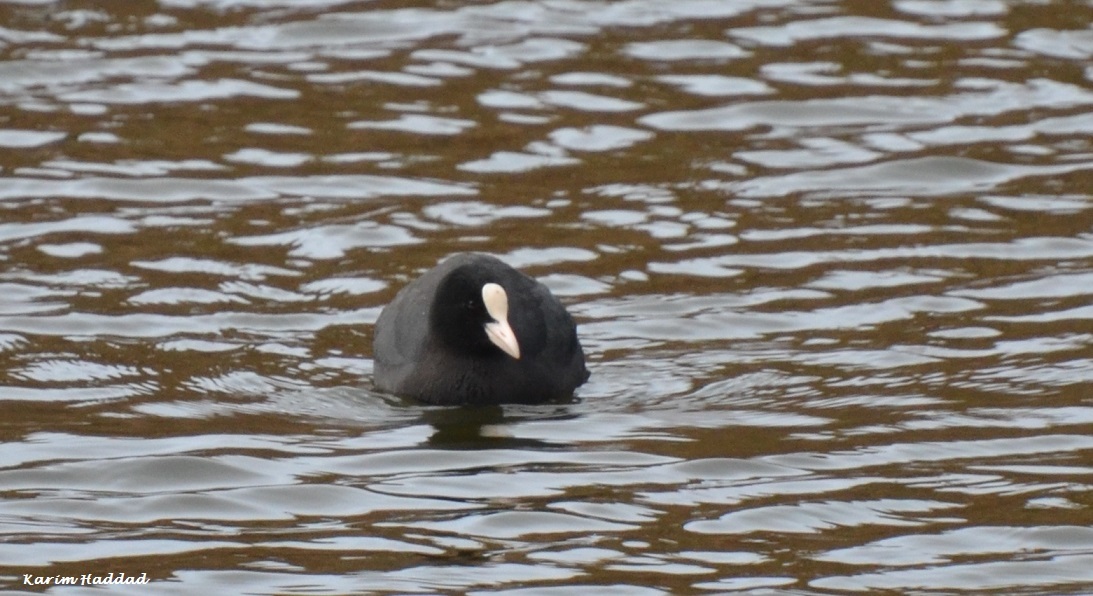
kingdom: Animalia
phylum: Chordata
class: Aves
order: Gruiformes
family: Rallidae
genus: Fulica
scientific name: Fulica atra
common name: Eurasian coot
